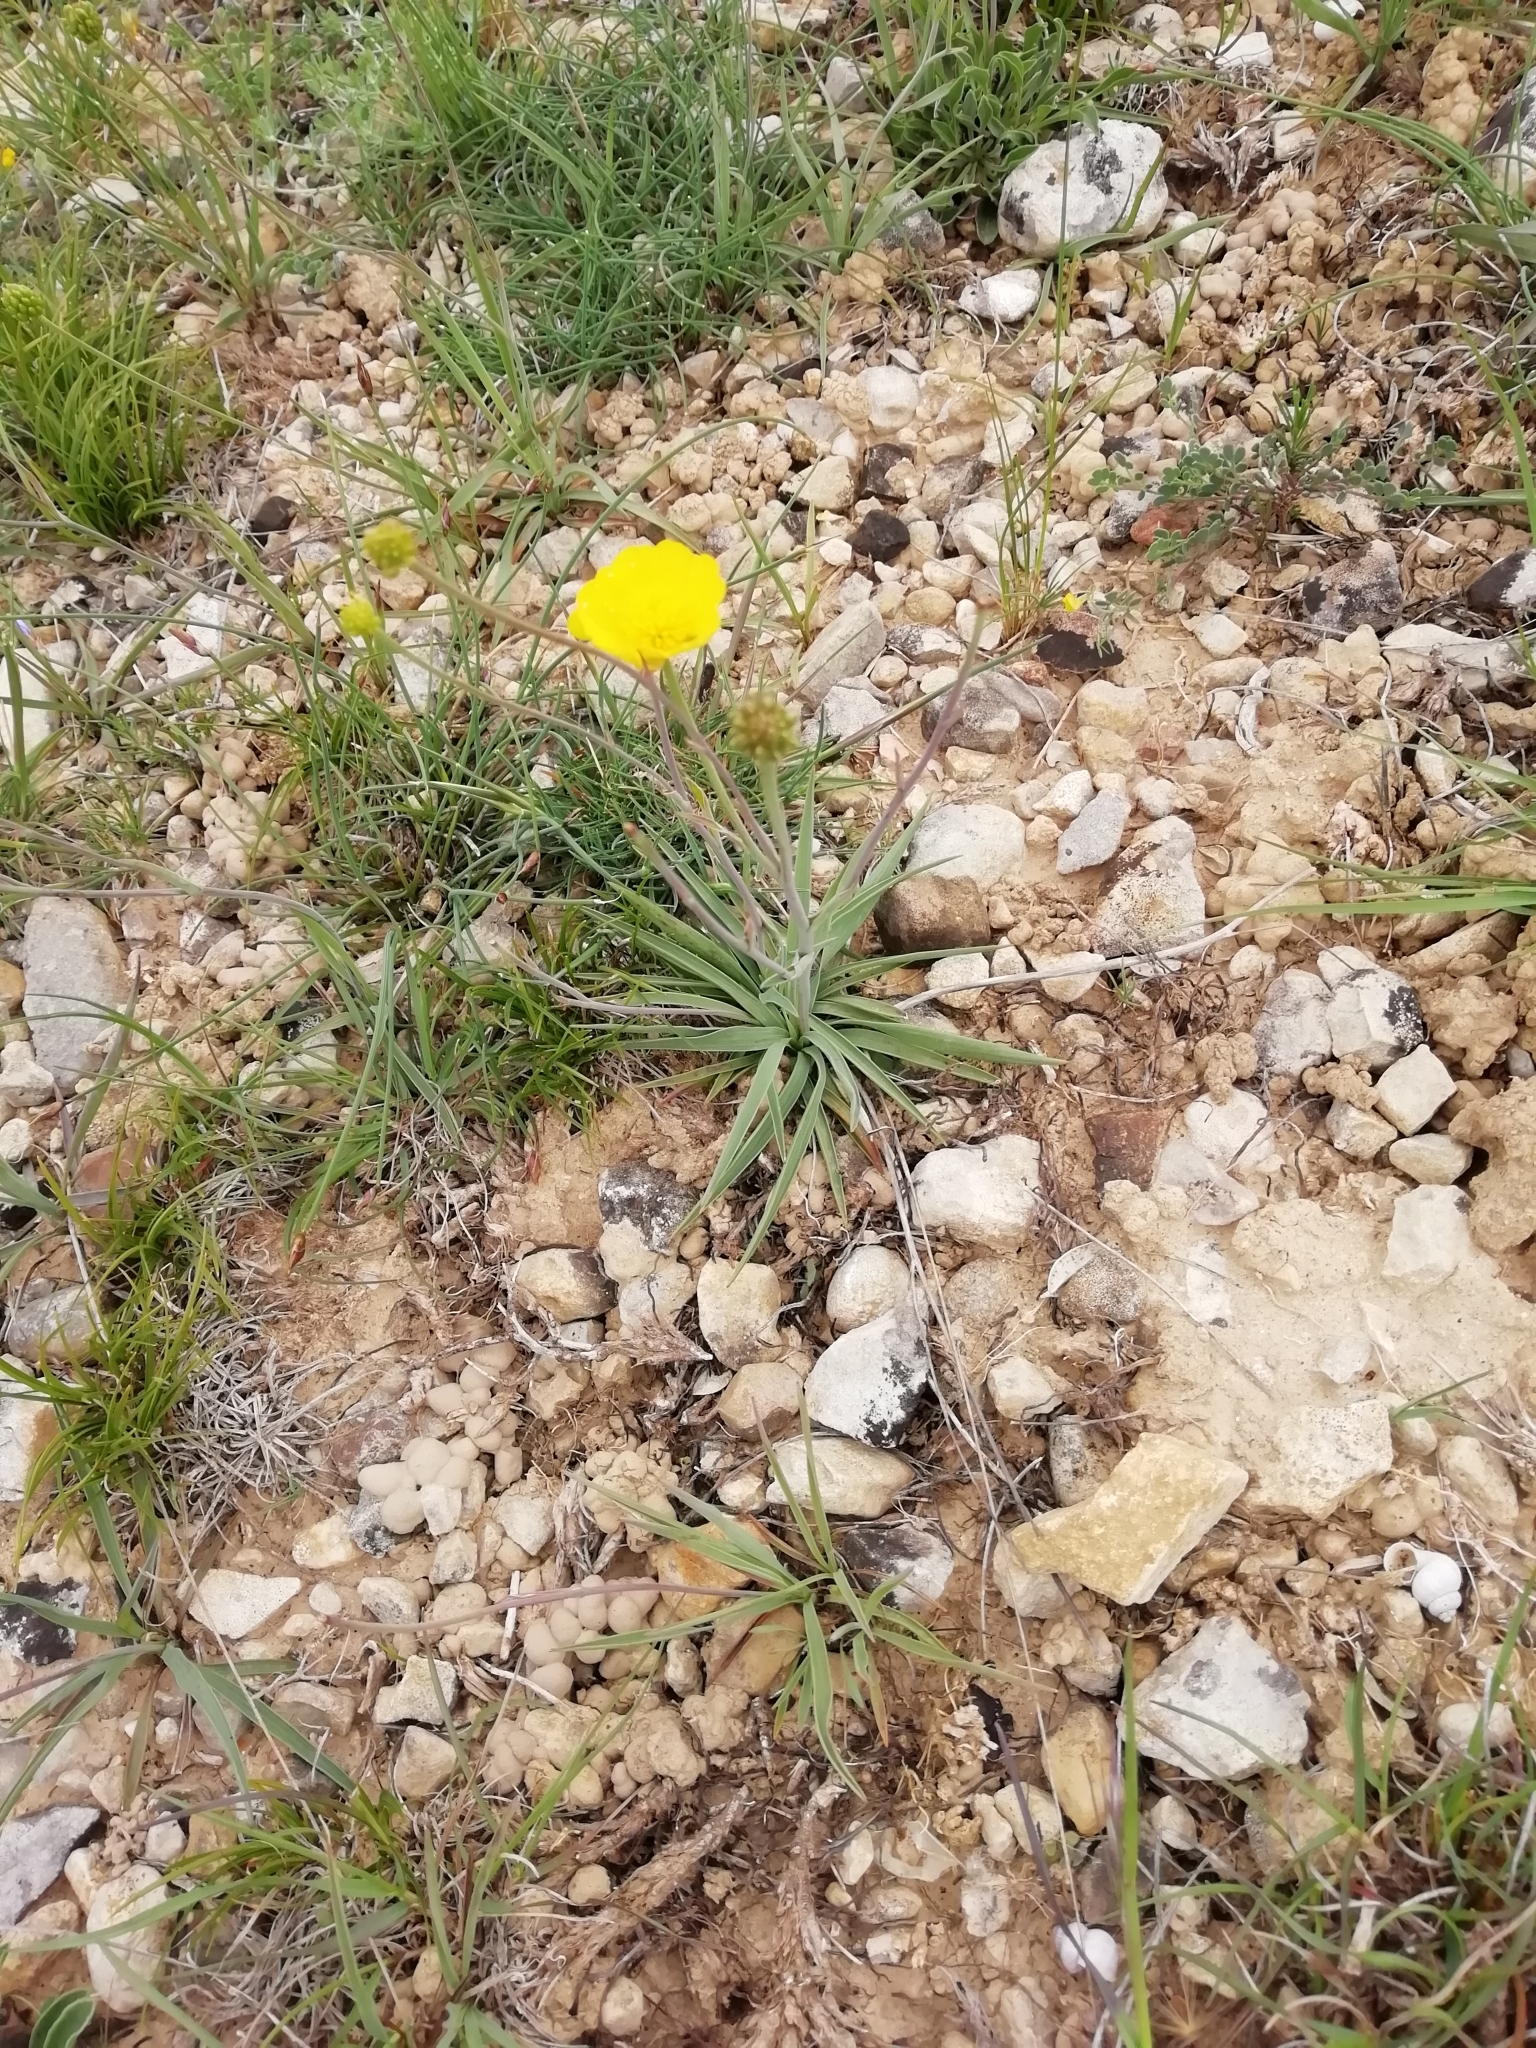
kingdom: Plantae
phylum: Tracheophyta
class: Magnoliopsida
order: Ranunculales
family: Ranunculaceae
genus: Ranunculus
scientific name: Ranunculus gramineus
